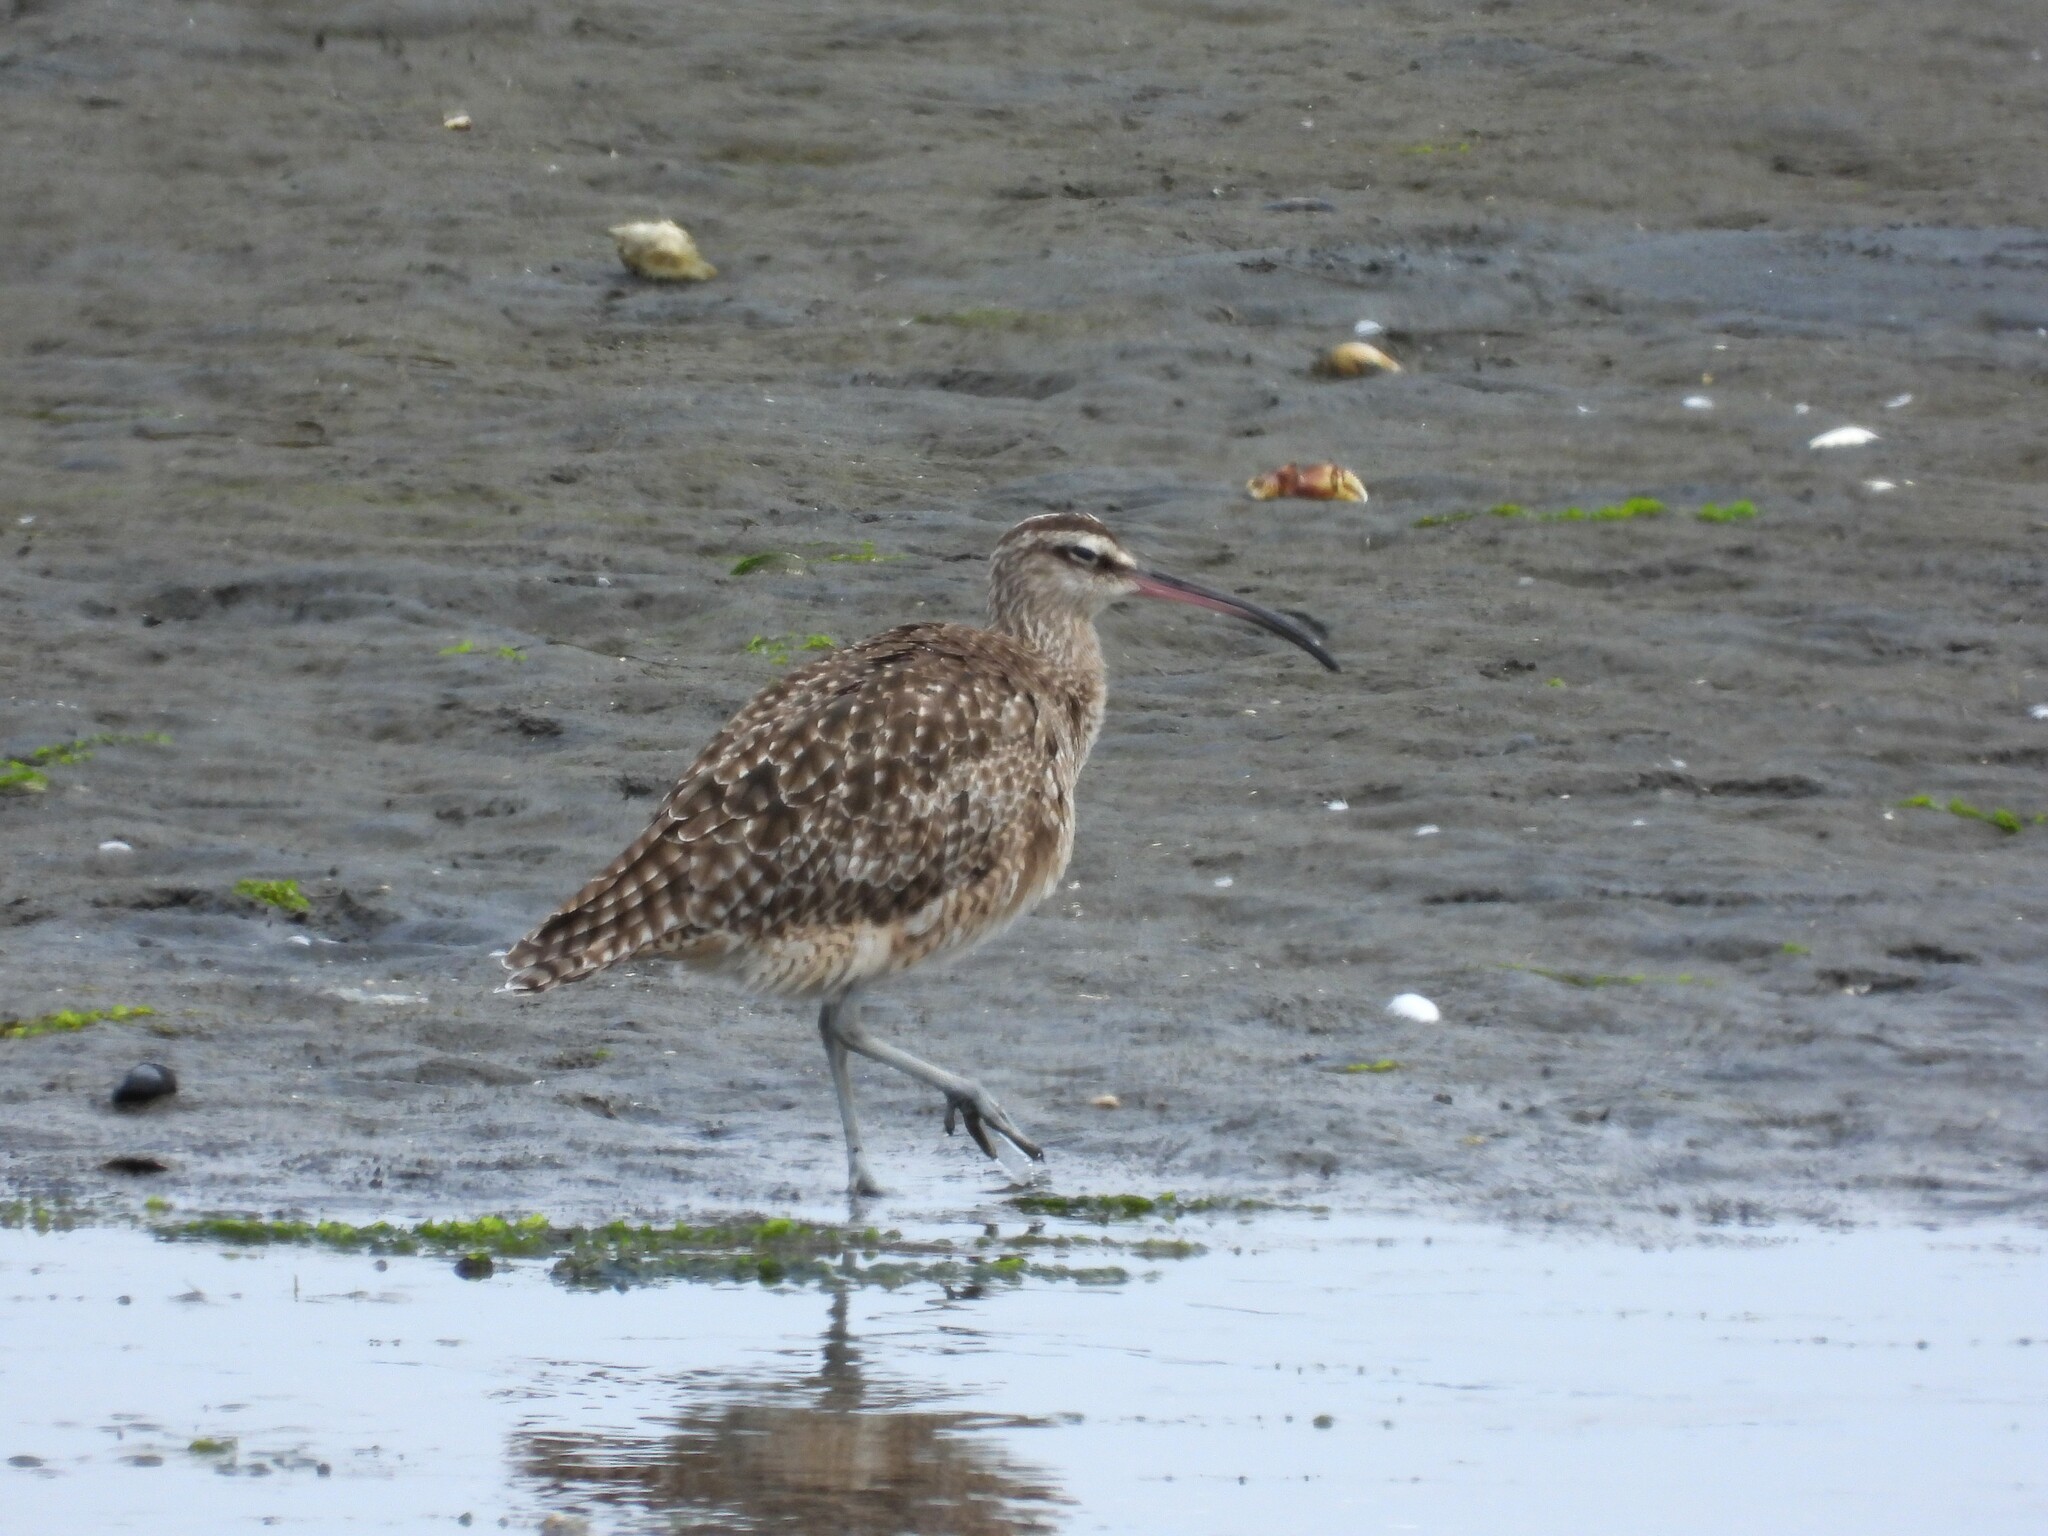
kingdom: Animalia
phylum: Chordata
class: Aves
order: Charadriiformes
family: Scolopacidae
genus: Numenius
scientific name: Numenius phaeopus
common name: Whimbrel
